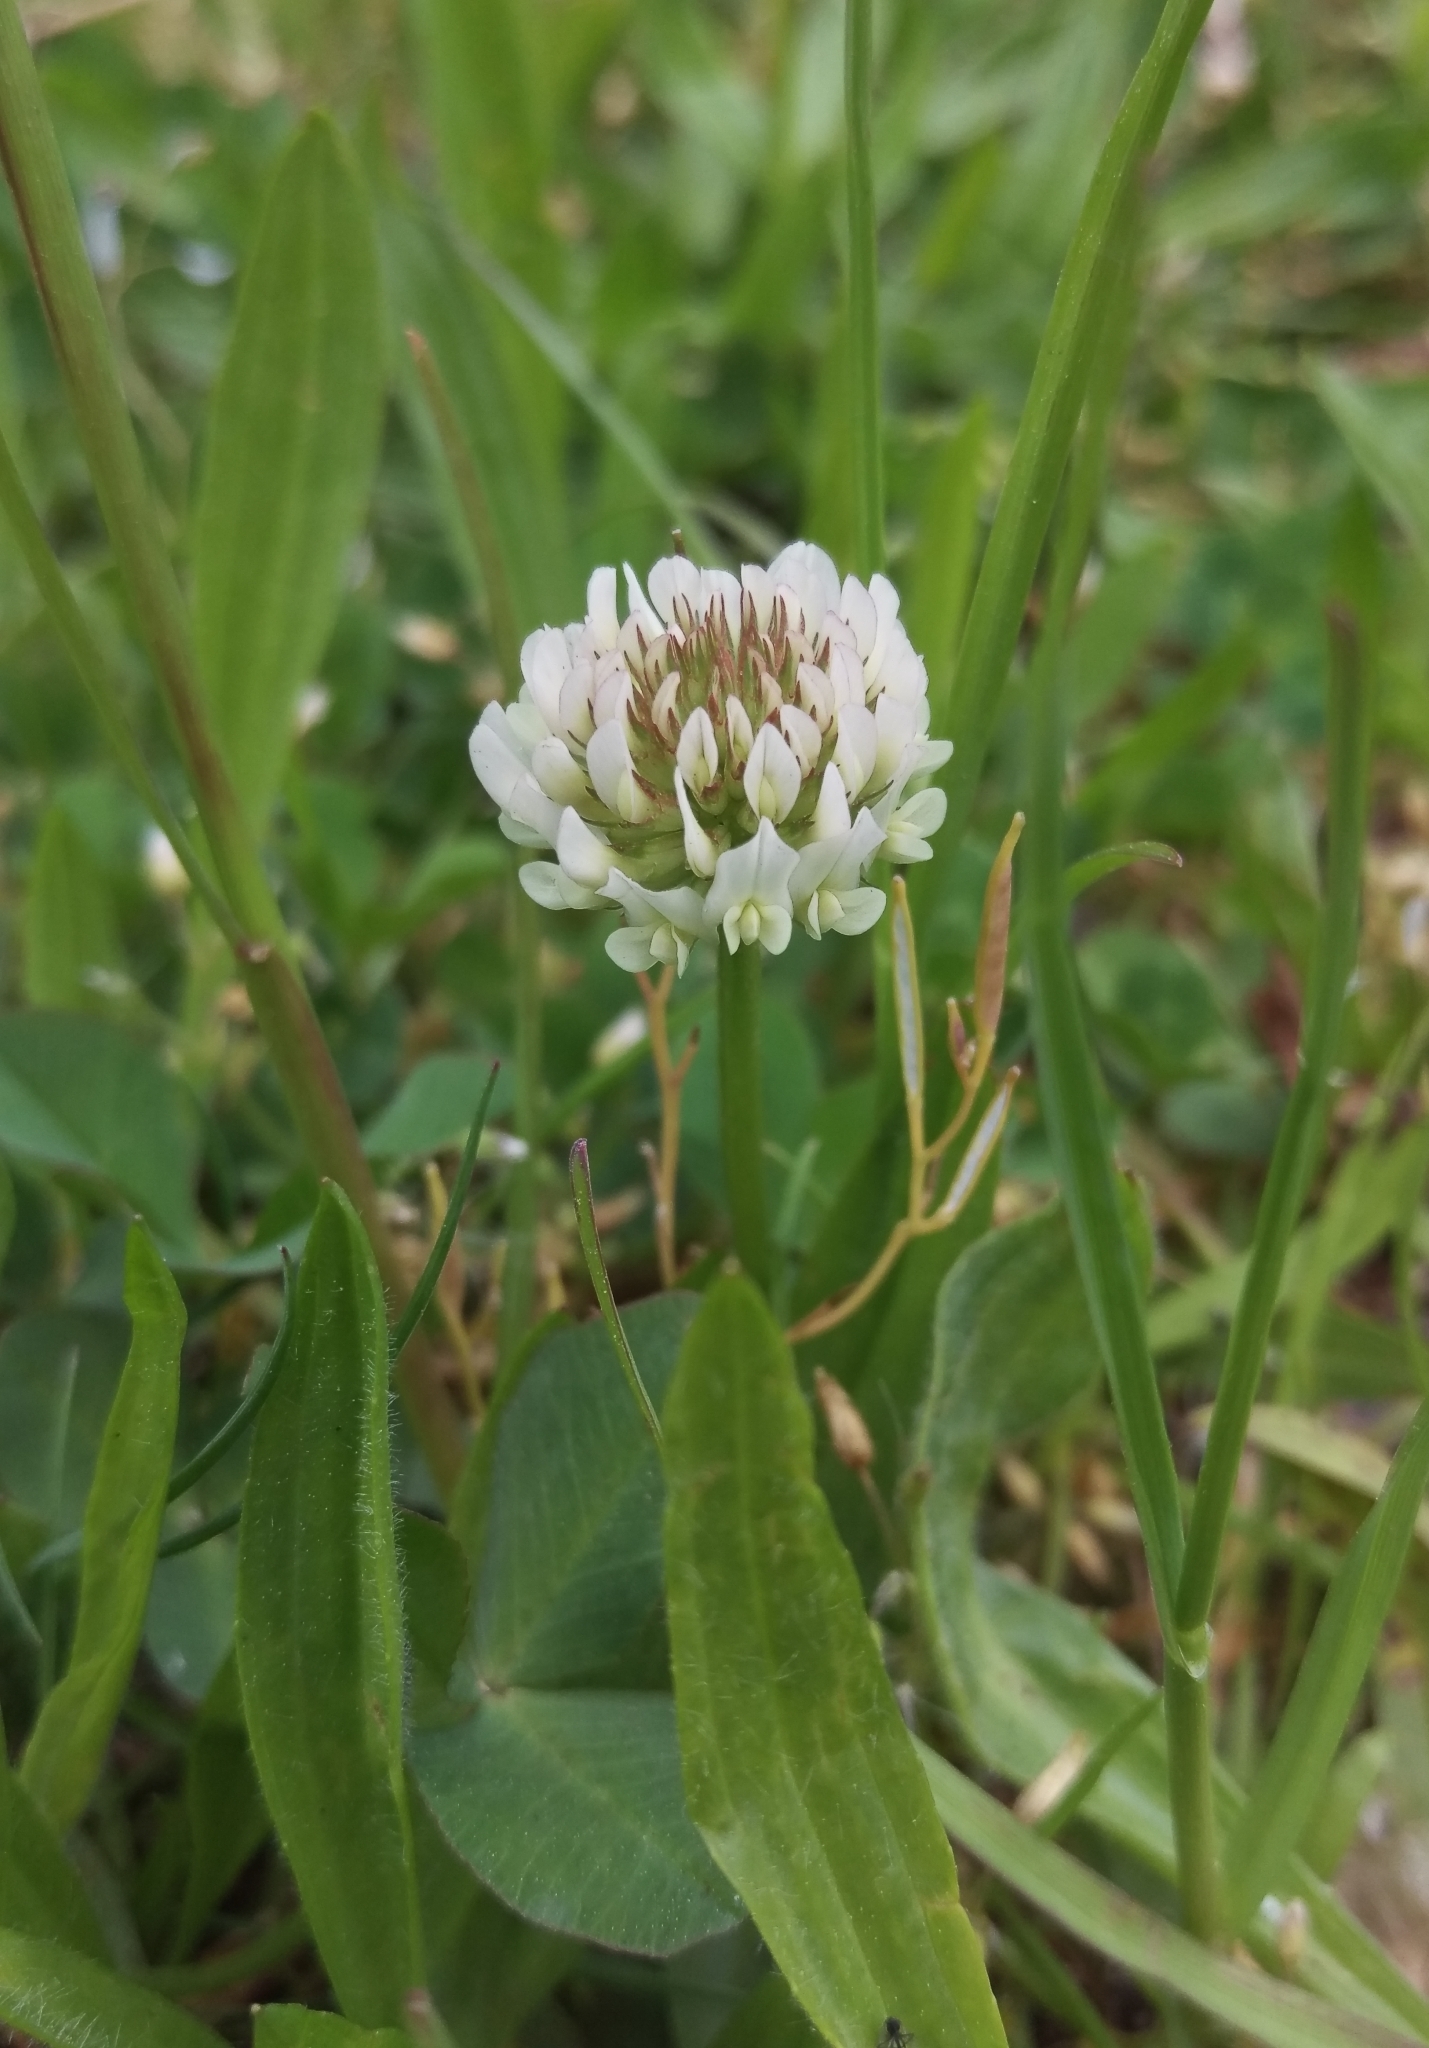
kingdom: Plantae
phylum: Tracheophyta
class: Magnoliopsida
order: Fabales
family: Fabaceae
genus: Trifolium
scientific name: Trifolium repens
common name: White clover
